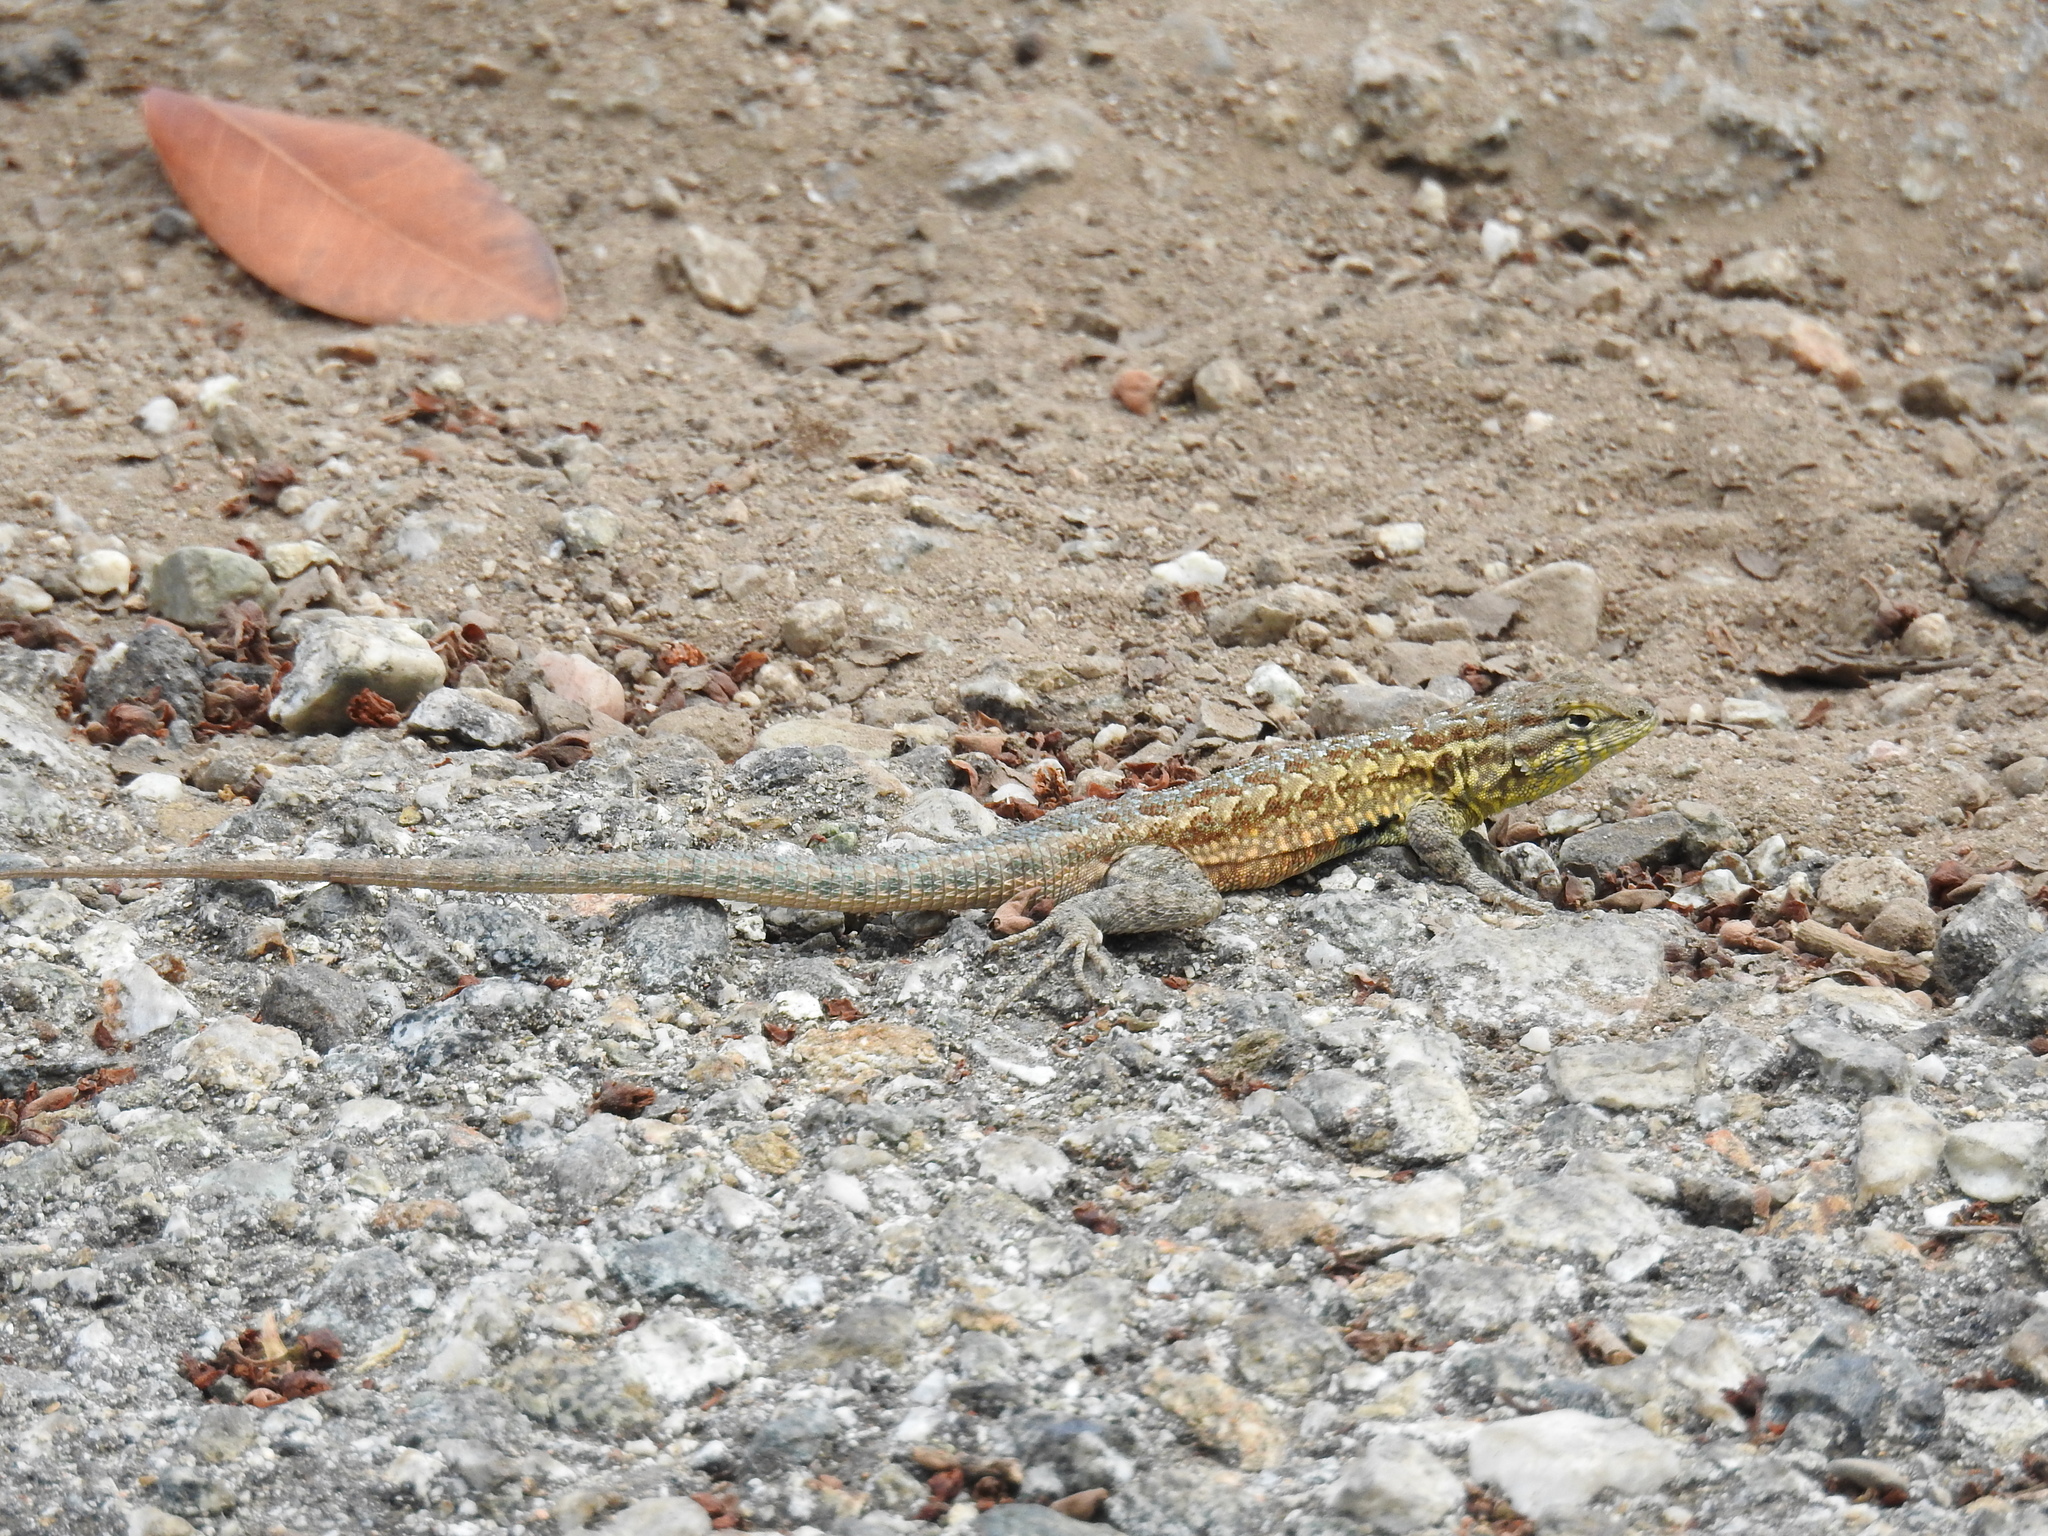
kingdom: Animalia
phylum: Chordata
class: Squamata
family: Phrynosomatidae
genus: Uta
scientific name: Uta stansburiana
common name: Side-blotched lizard
